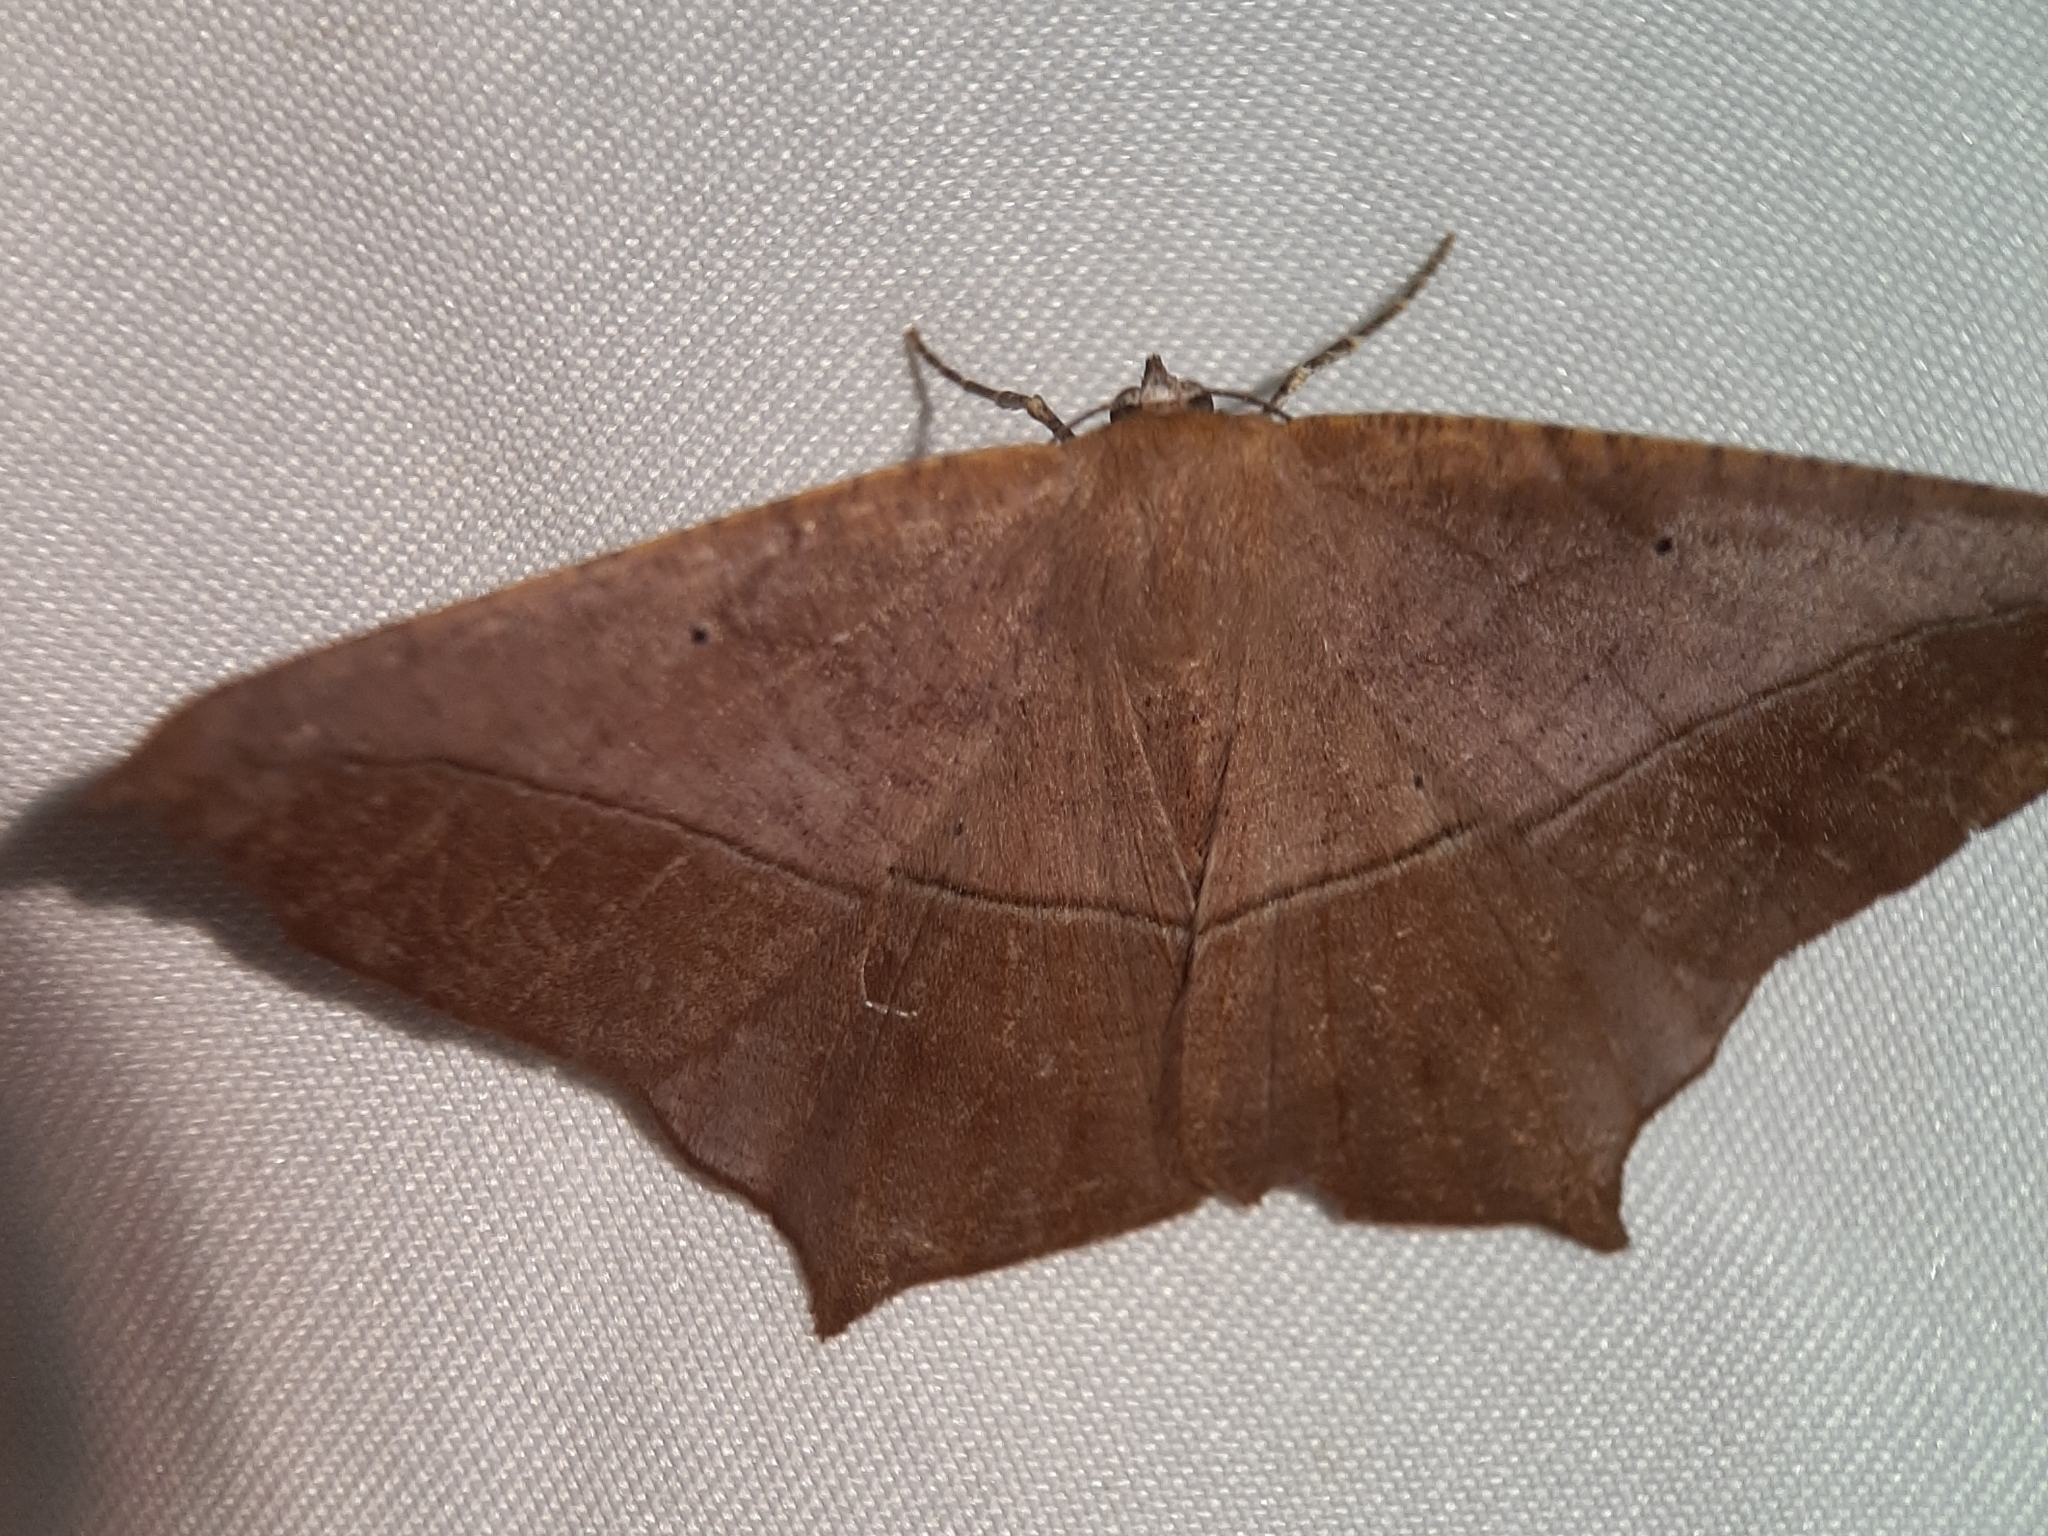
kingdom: Animalia
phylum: Arthropoda
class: Insecta
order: Lepidoptera
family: Geometridae
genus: Prochoerodes
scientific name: Prochoerodes lineola
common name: Large maple spanworm
